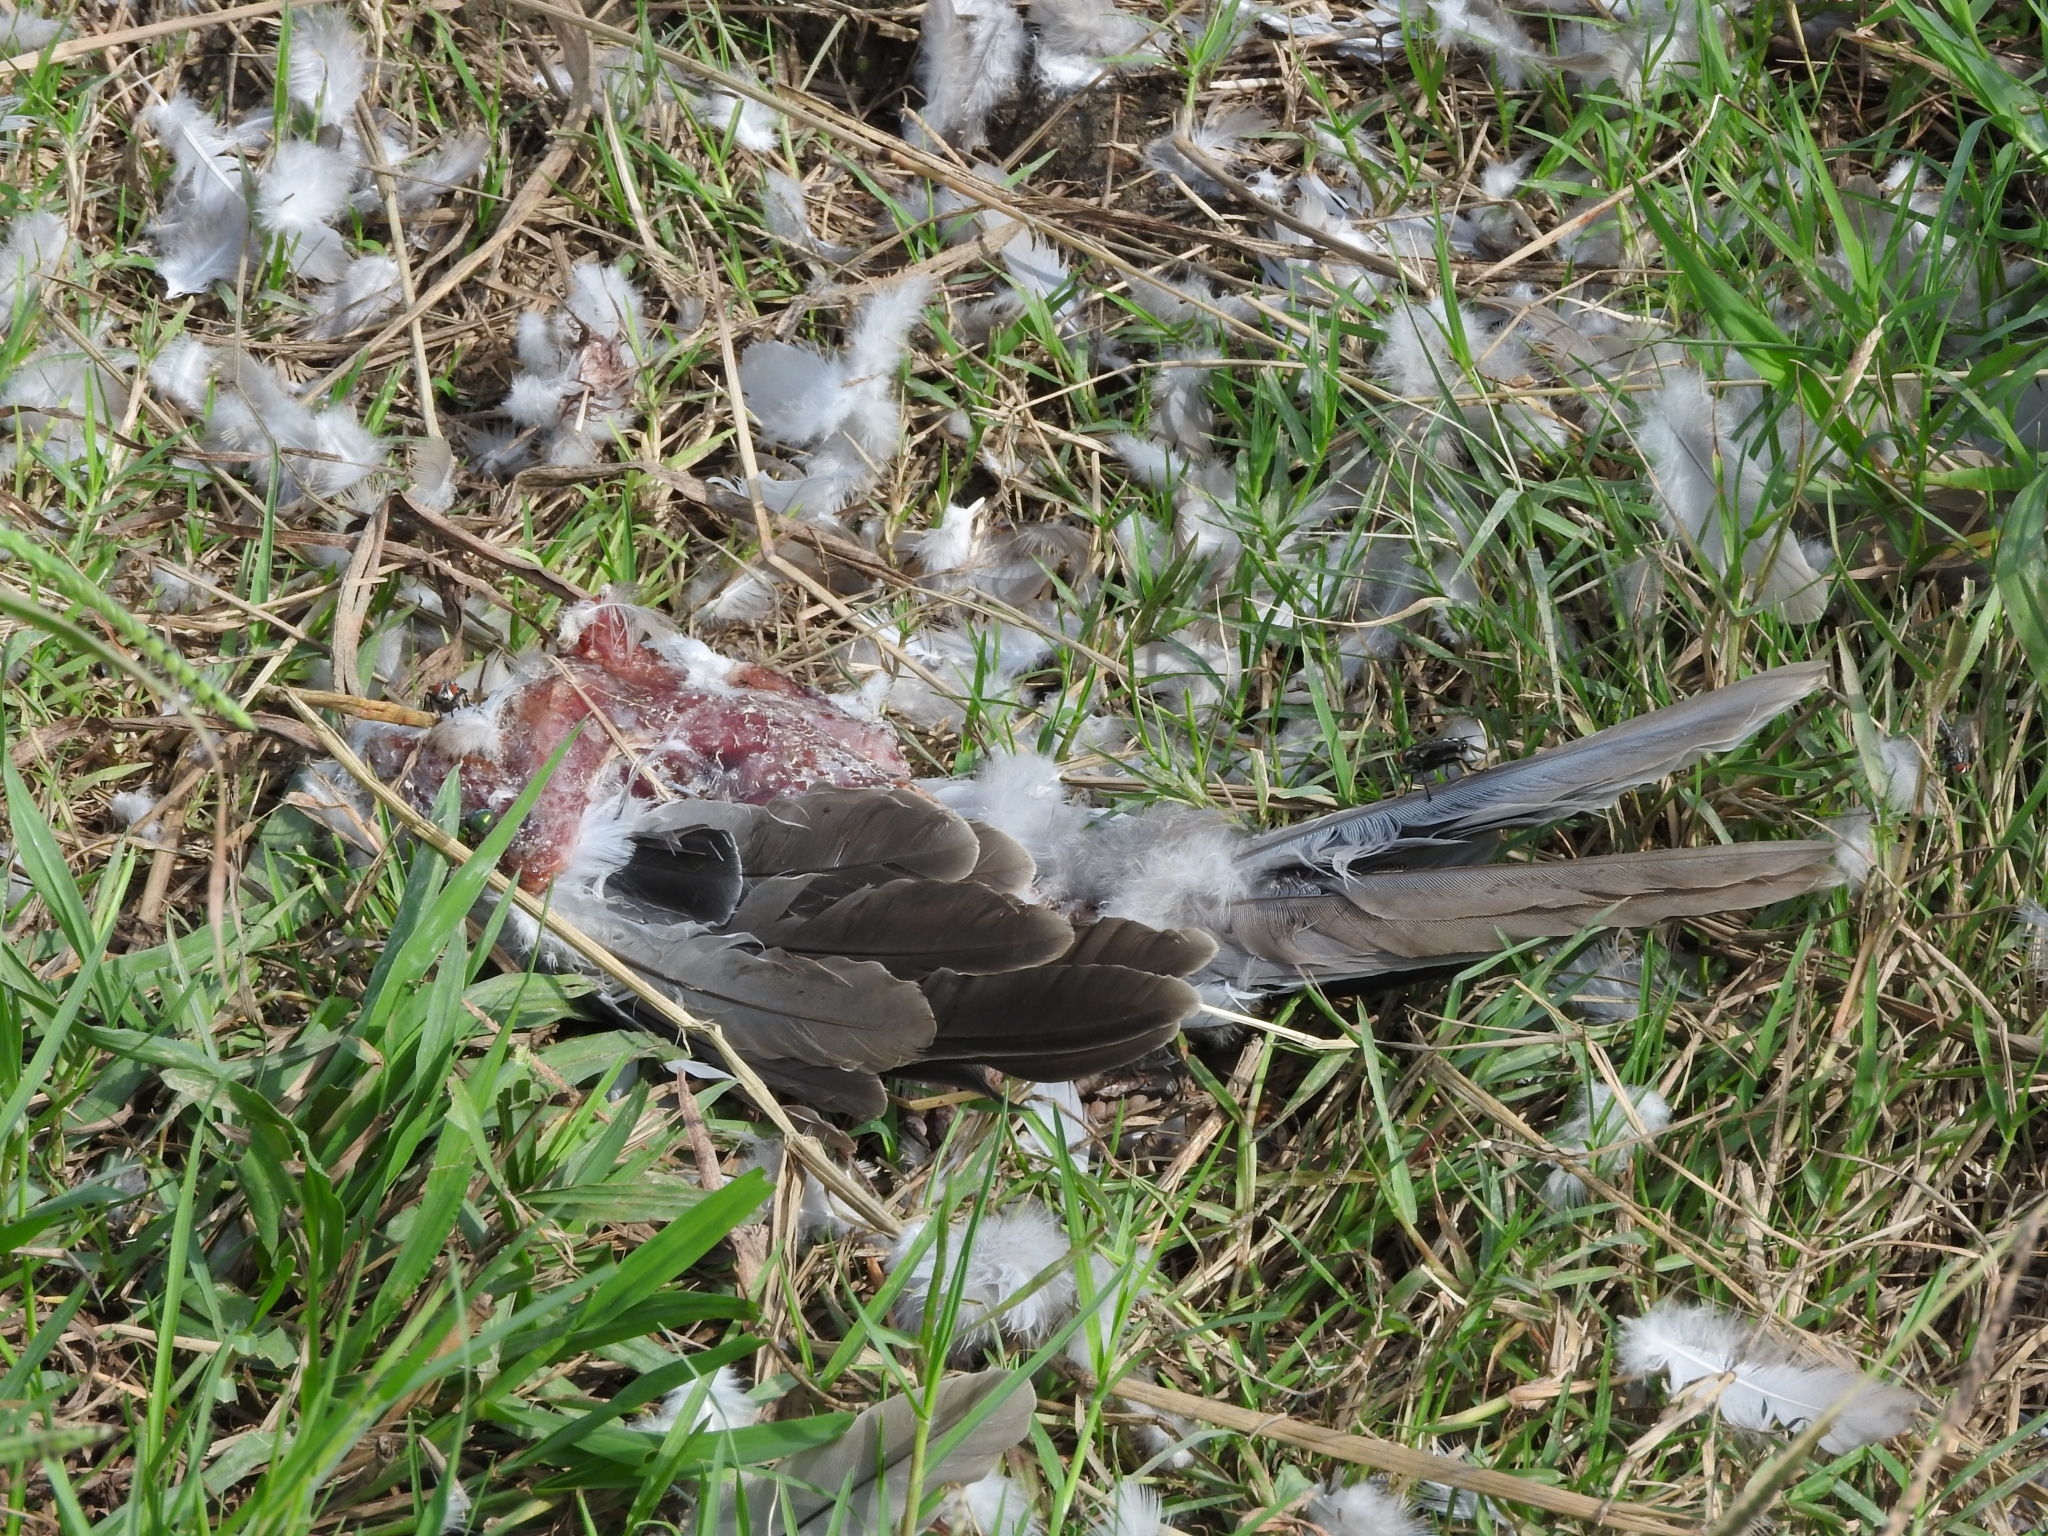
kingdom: Animalia
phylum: Chordata
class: Aves
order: Columbiformes
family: Columbidae
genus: Streptopelia
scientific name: Streptopelia decaocto
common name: Eurasian collared dove
